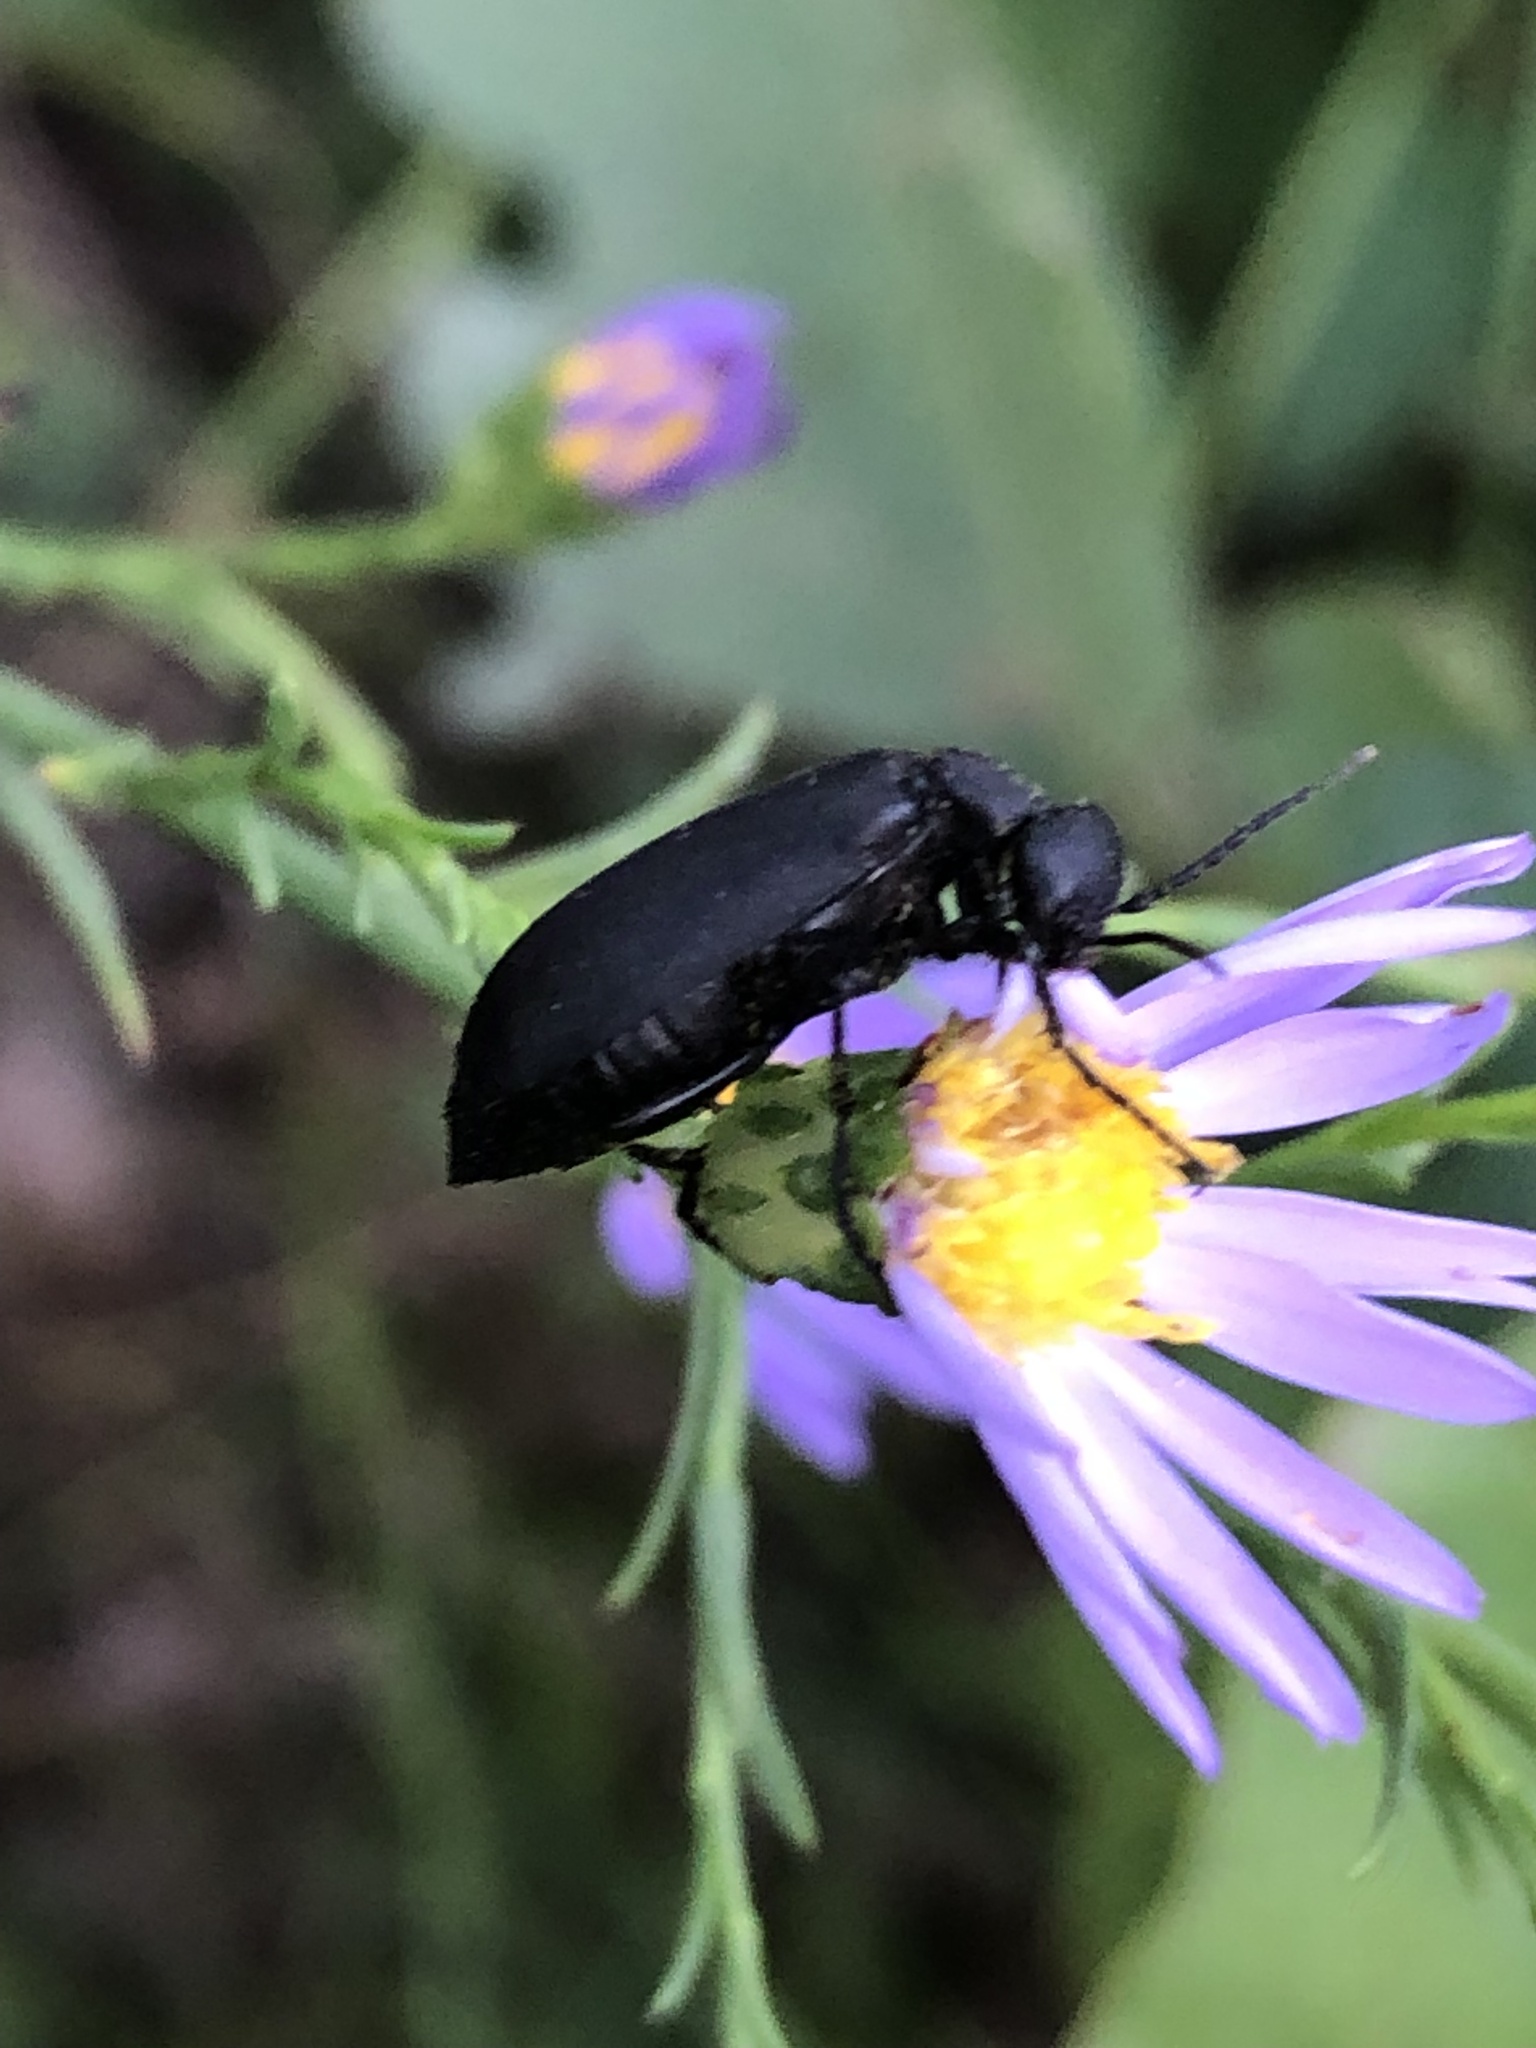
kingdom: Animalia
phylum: Arthropoda
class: Insecta
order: Coleoptera
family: Meloidae
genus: Epicauta
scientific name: Epicauta pensylvanica
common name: Black blister beetle
